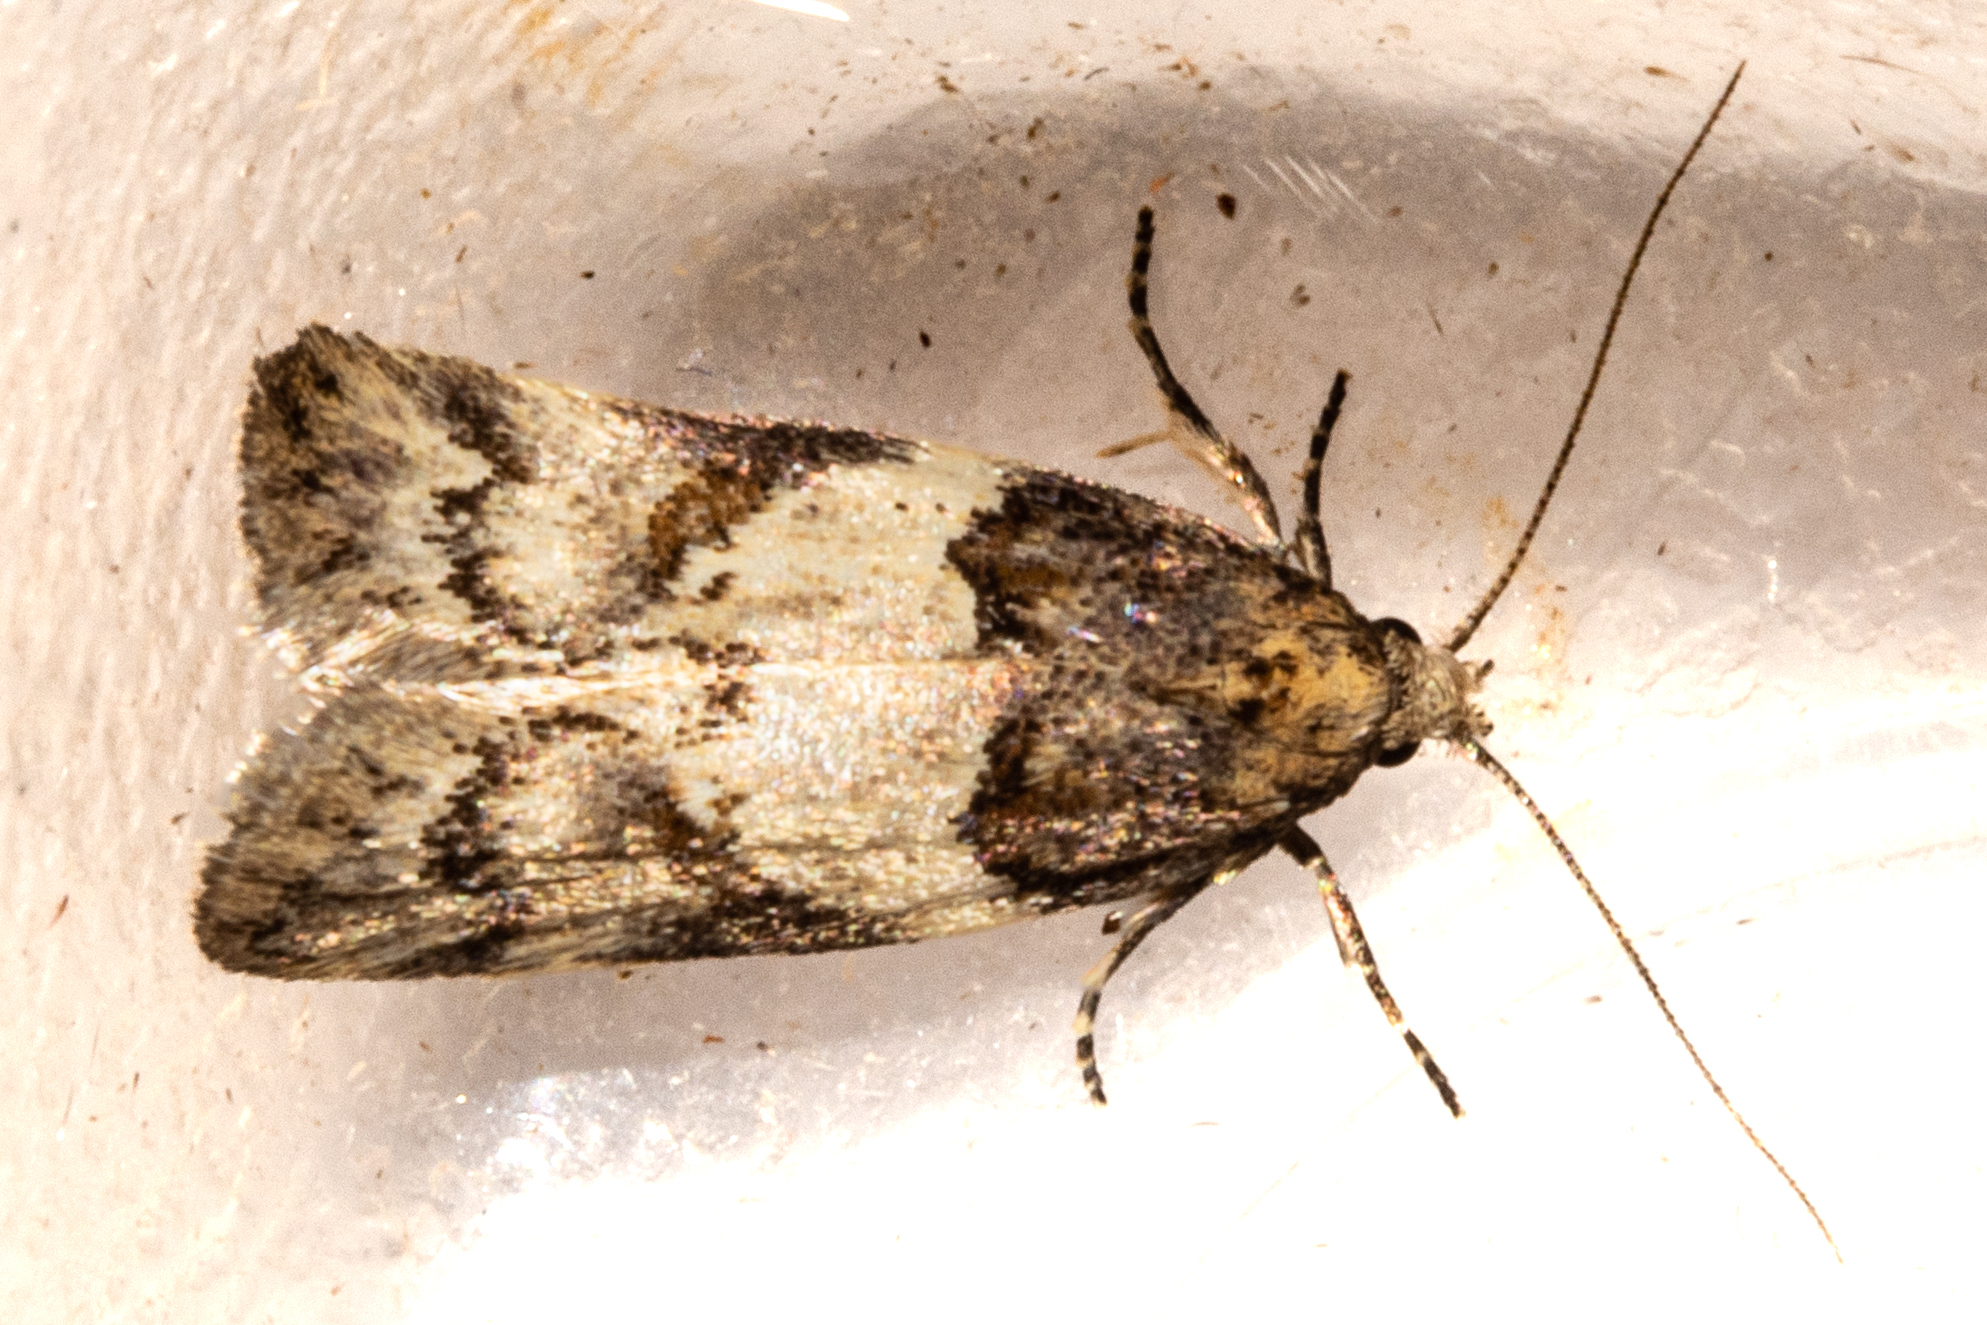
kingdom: Animalia
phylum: Arthropoda
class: Insecta
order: Lepidoptera
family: Oecophoridae
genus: Trachypepla
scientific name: Trachypepla contritella
